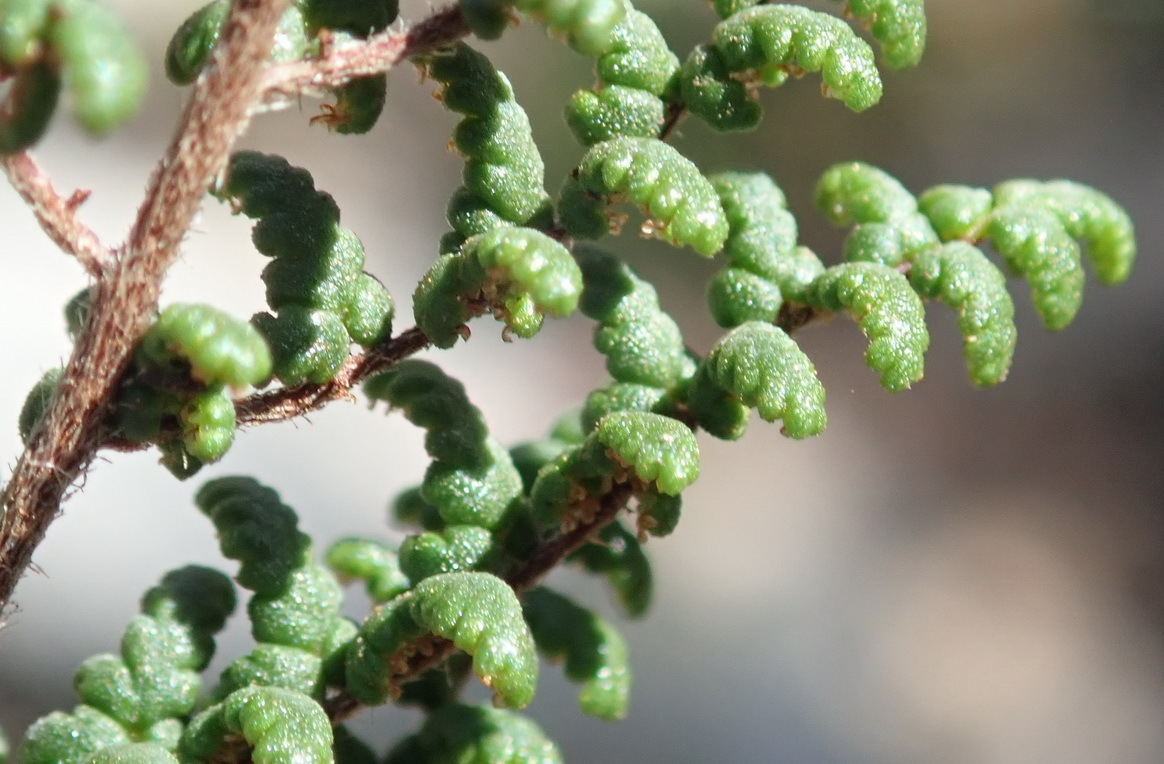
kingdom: Plantae
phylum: Tracheophyta
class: Polypodiopsida
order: Polypodiales
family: Pteridaceae
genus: Cheilanthes
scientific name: Cheilanthes parviloba
